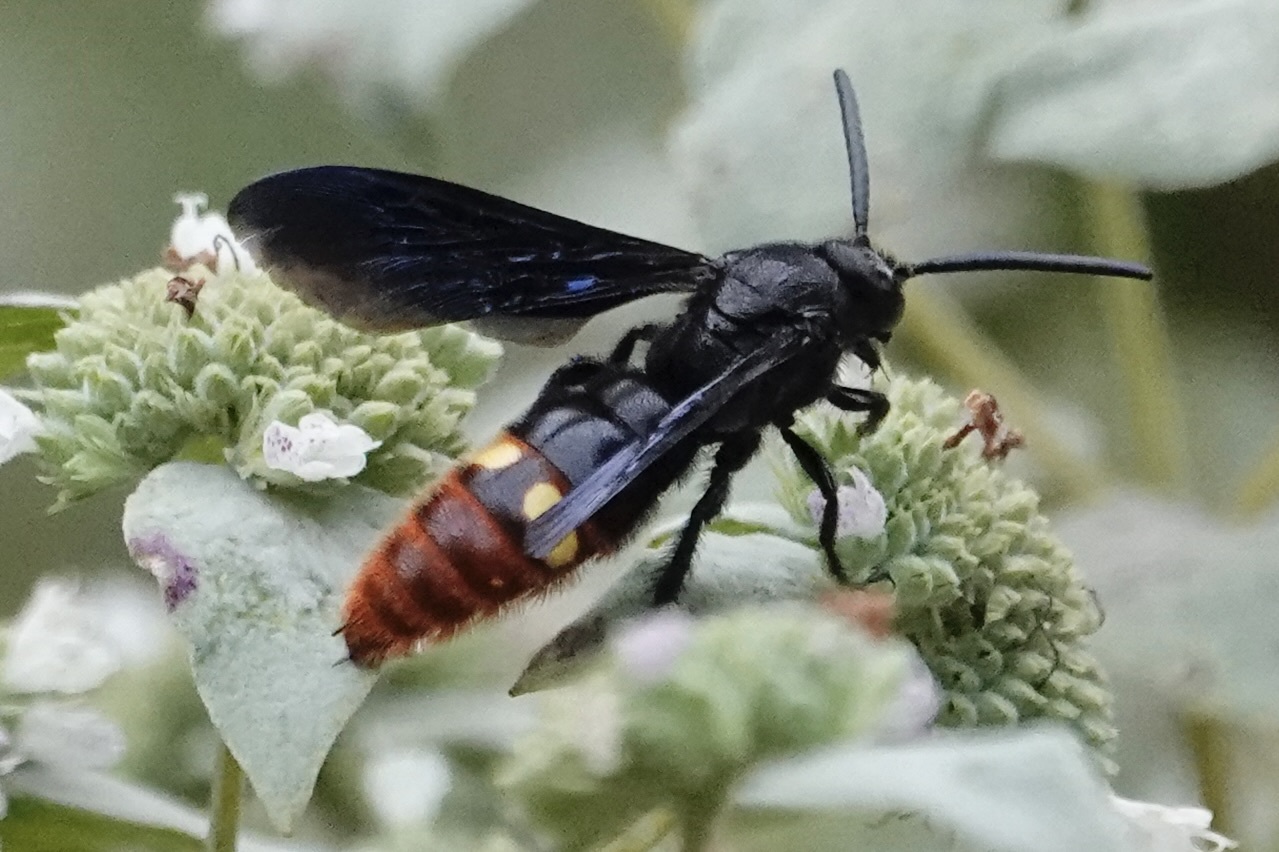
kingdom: Animalia
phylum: Arthropoda
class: Insecta
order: Hymenoptera
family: Scoliidae
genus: Scolia
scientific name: Scolia dubia
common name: Blue-winged scoliid wasp
